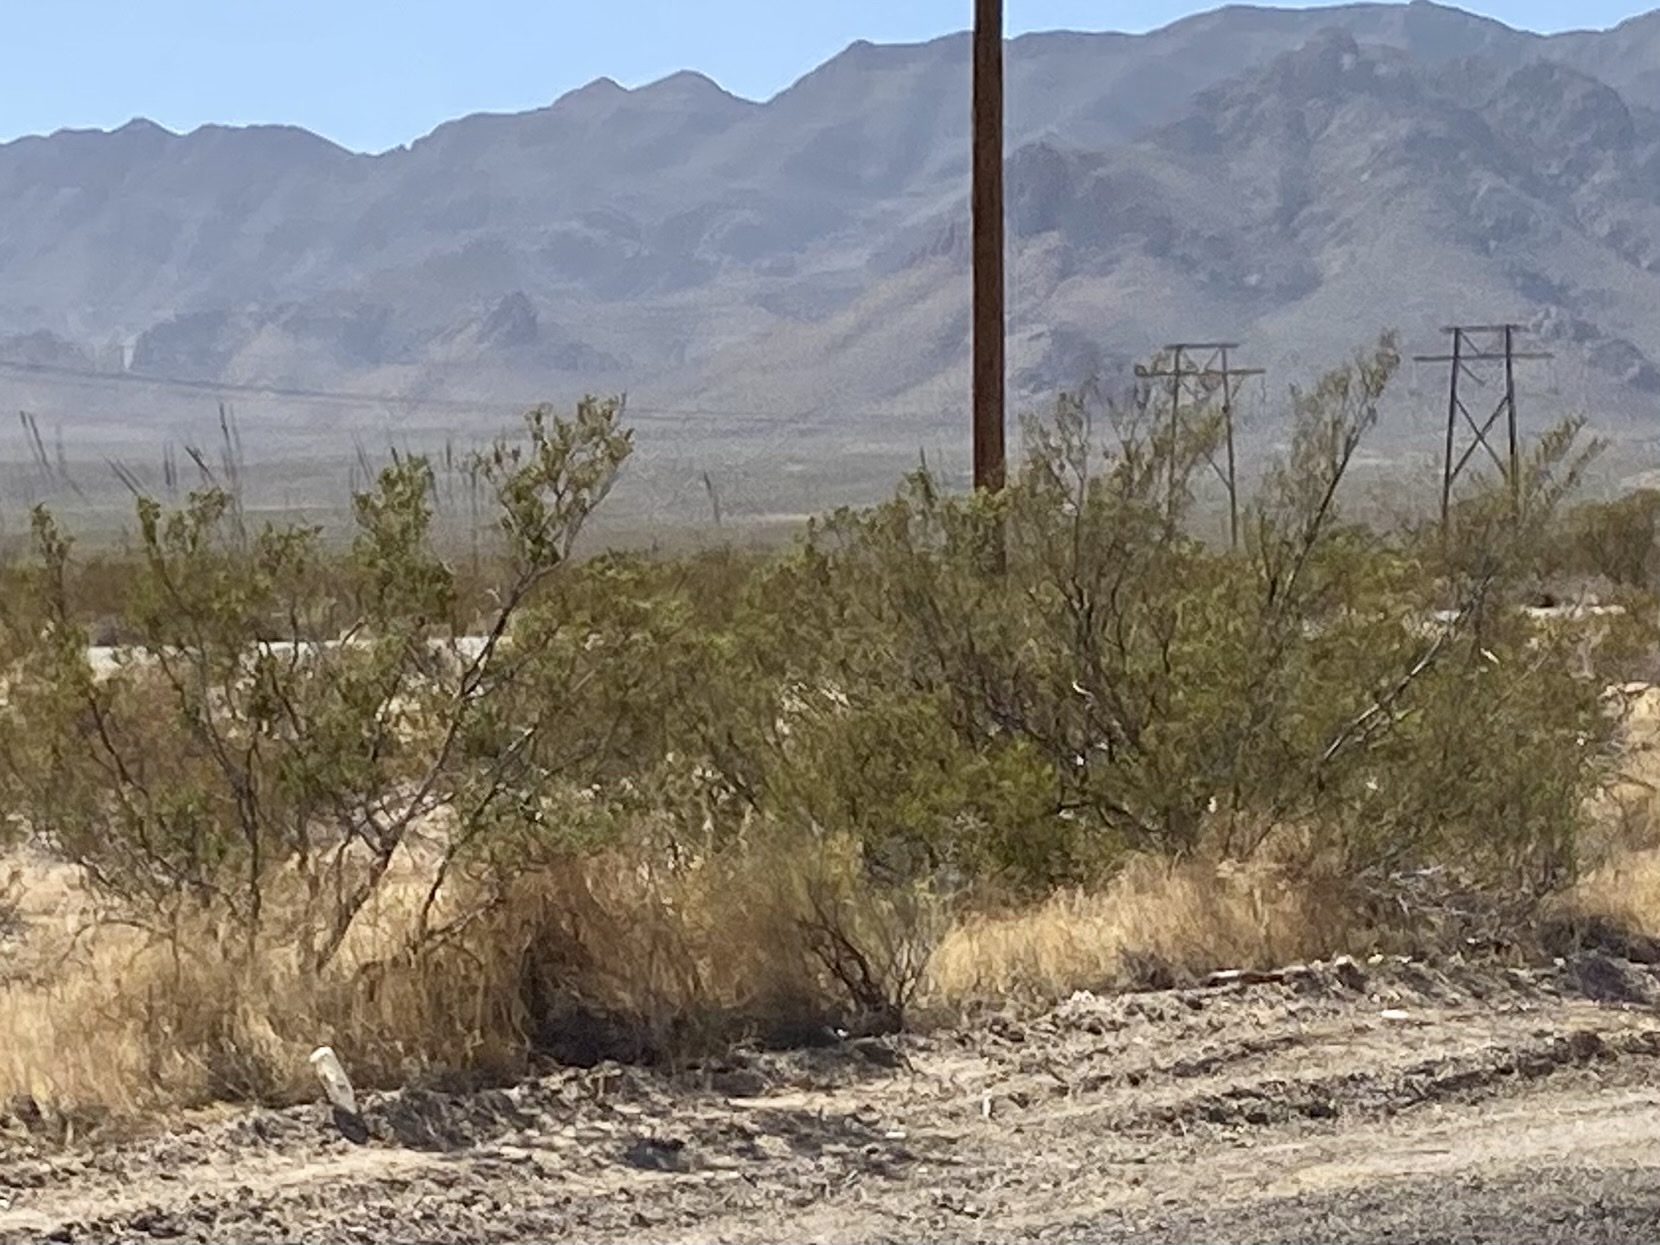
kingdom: Plantae
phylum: Tracheophyta
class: Magnoliopsida
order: Zygophyllales
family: Zygophyllaceae
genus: Larrea
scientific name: Larrea tridentata
